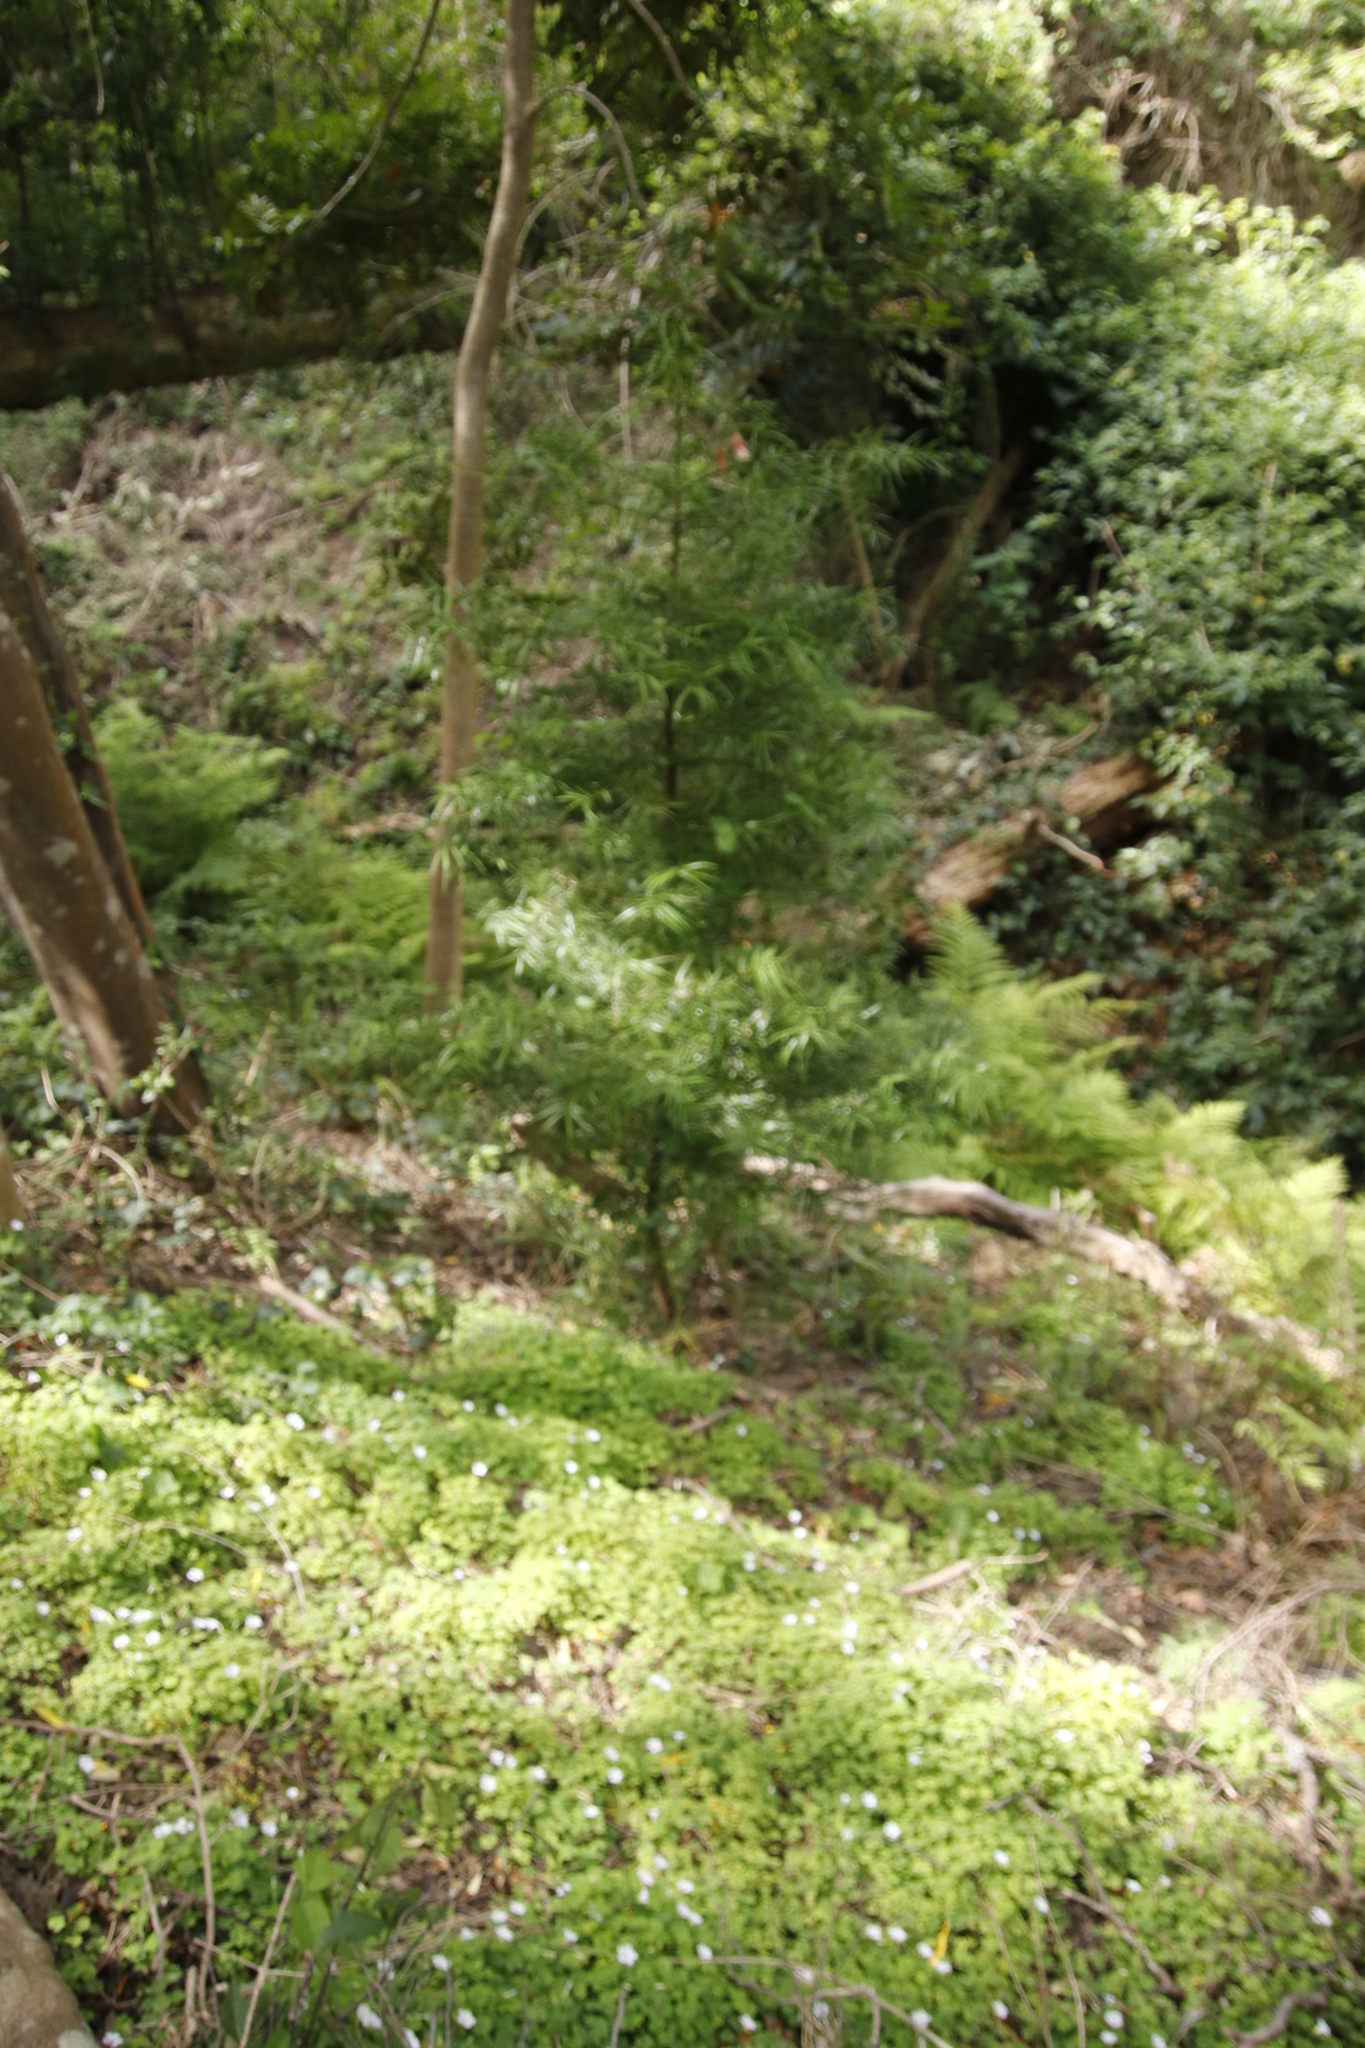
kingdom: Plantae
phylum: Tracheophyta
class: Pinopsida
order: Pinales
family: Podocarpaceae
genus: Afrocarpus
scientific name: Afrocarpus falcatus
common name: Bastard yellowwood
